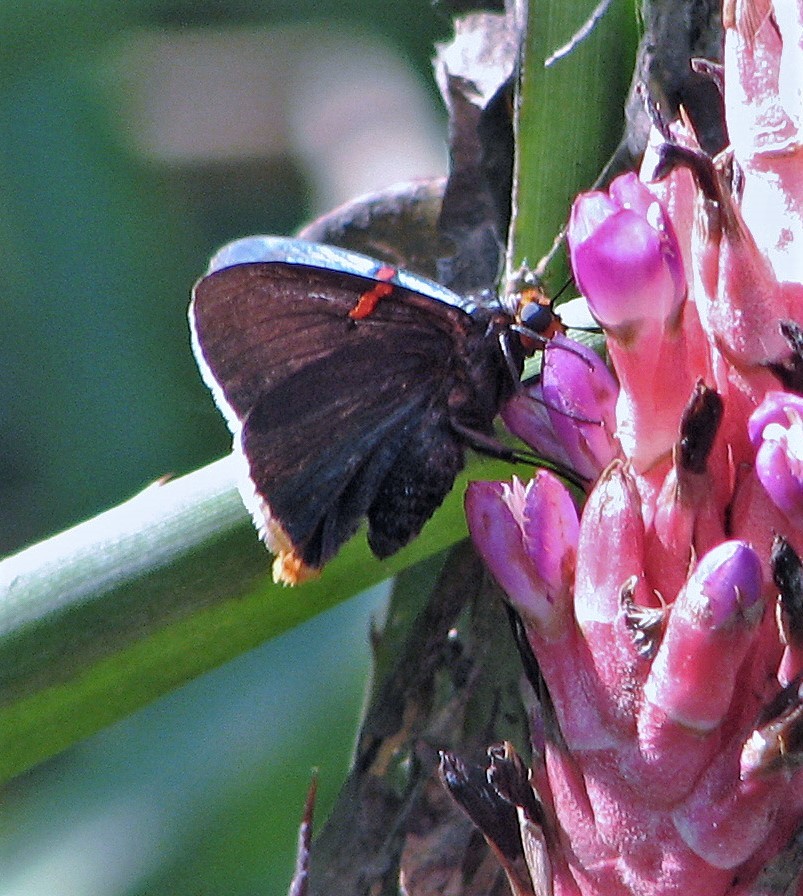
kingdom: Animalia
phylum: Arthropoda
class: Insecta
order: Lepidoptera
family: Hesperiidae
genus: Phocides
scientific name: Phocides polybius
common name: Guava skipper
